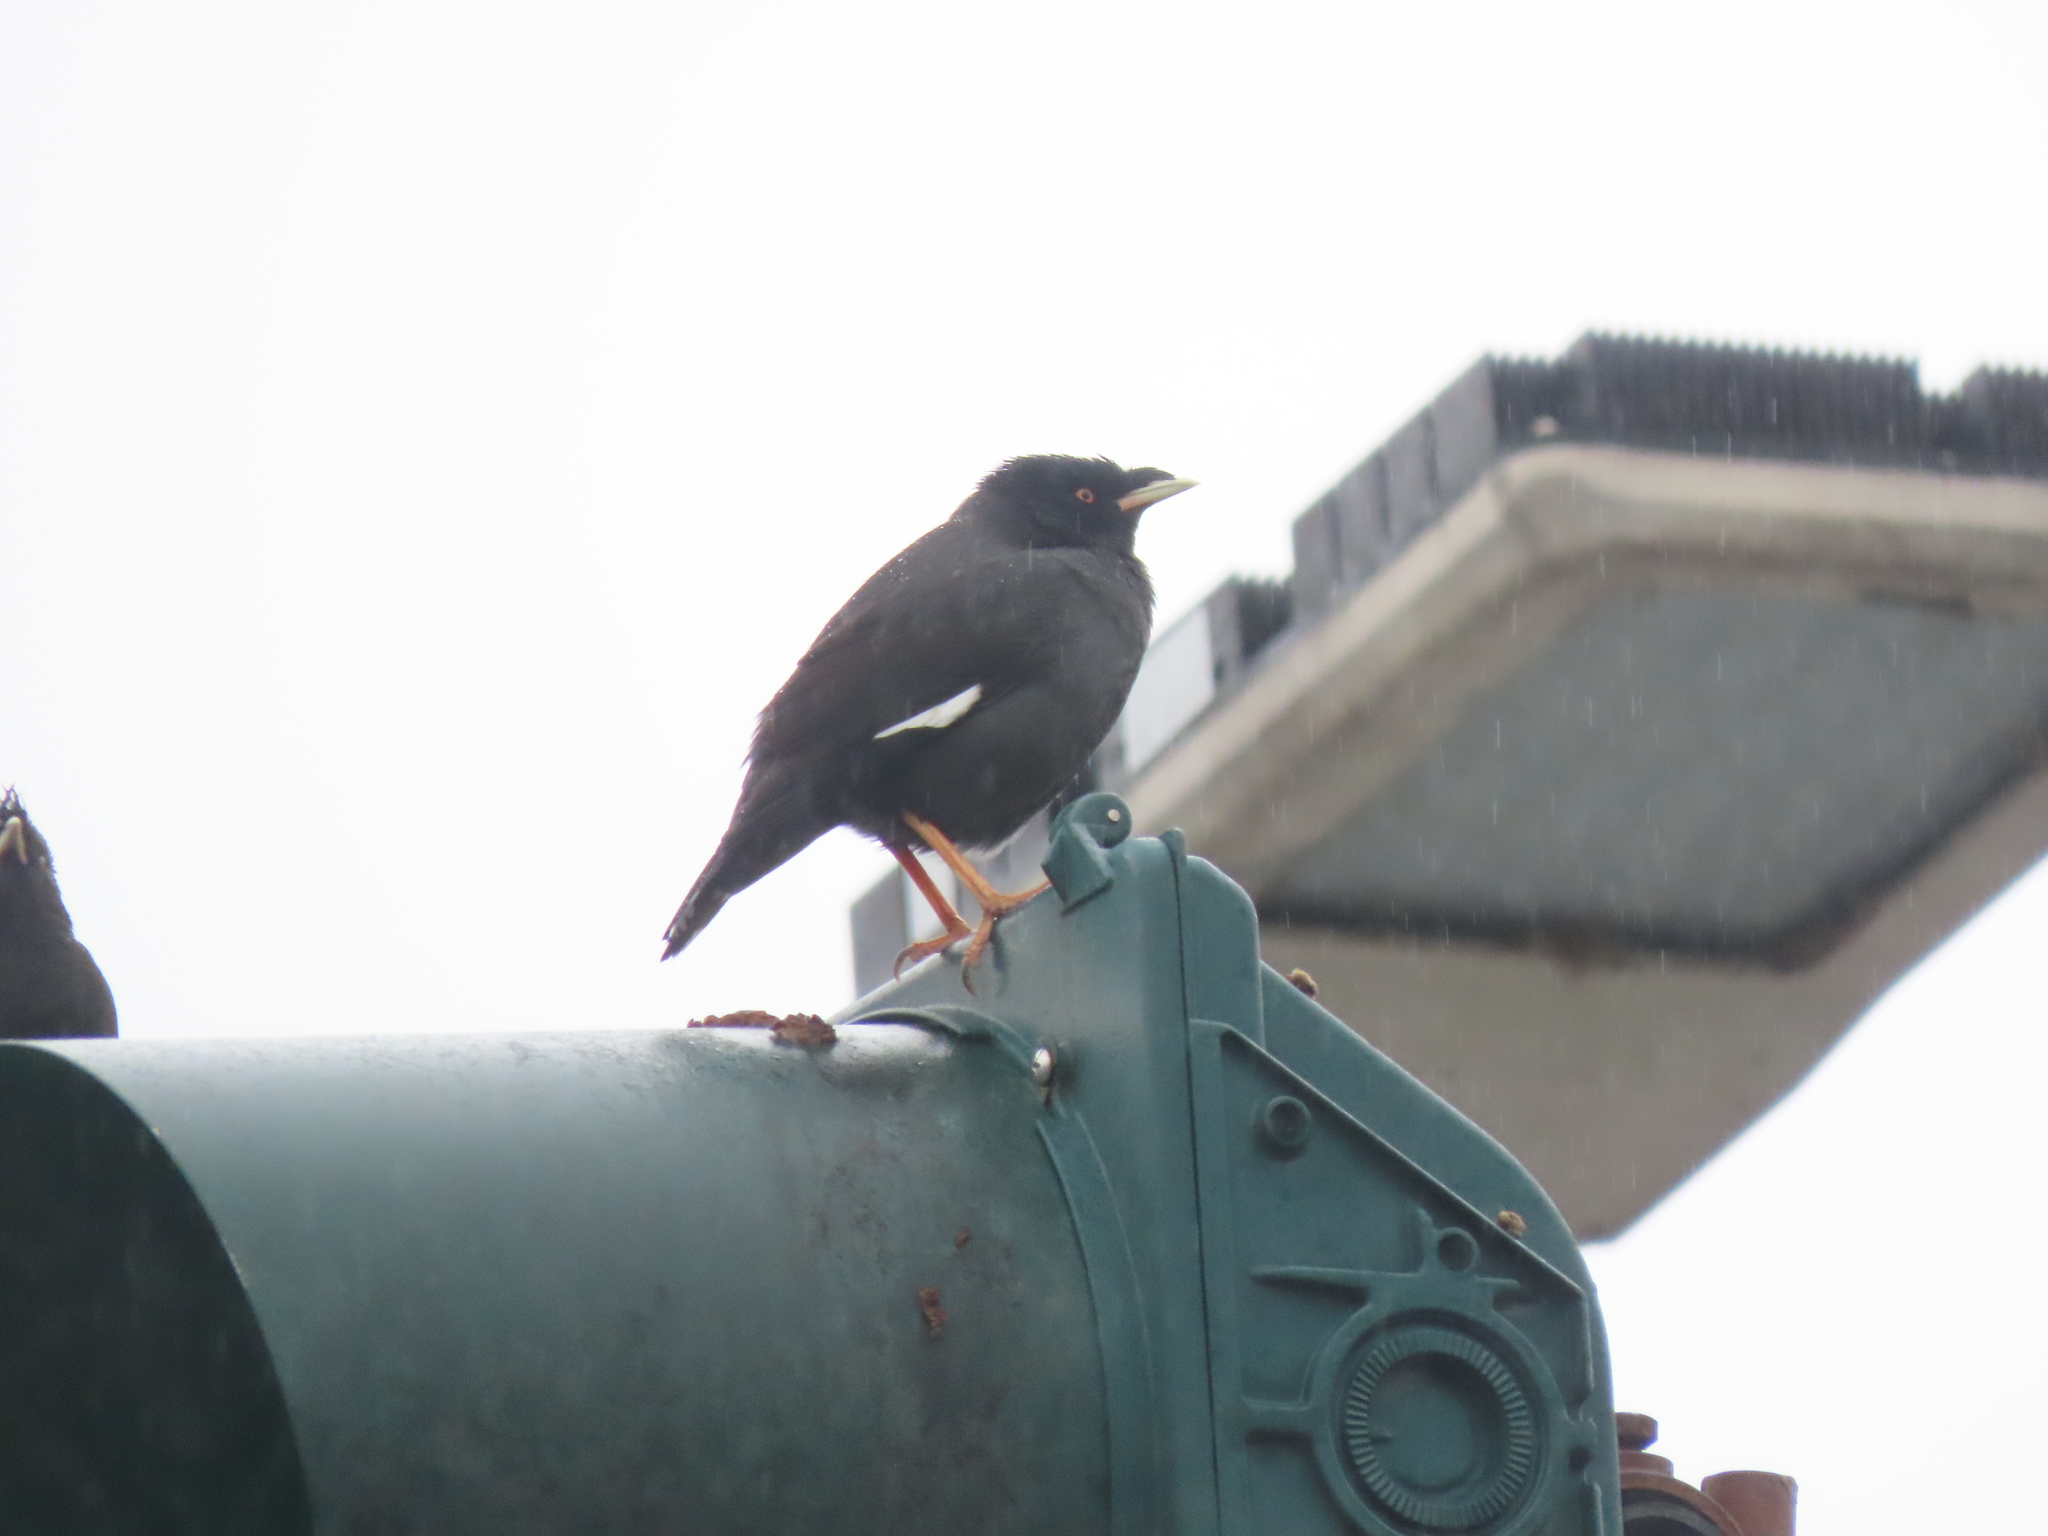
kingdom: Animalia
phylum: Chordata
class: Aves
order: Passeriformes
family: Sturnidae
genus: Acridotheres
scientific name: Acridotheres cristatellus
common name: Crested myna
